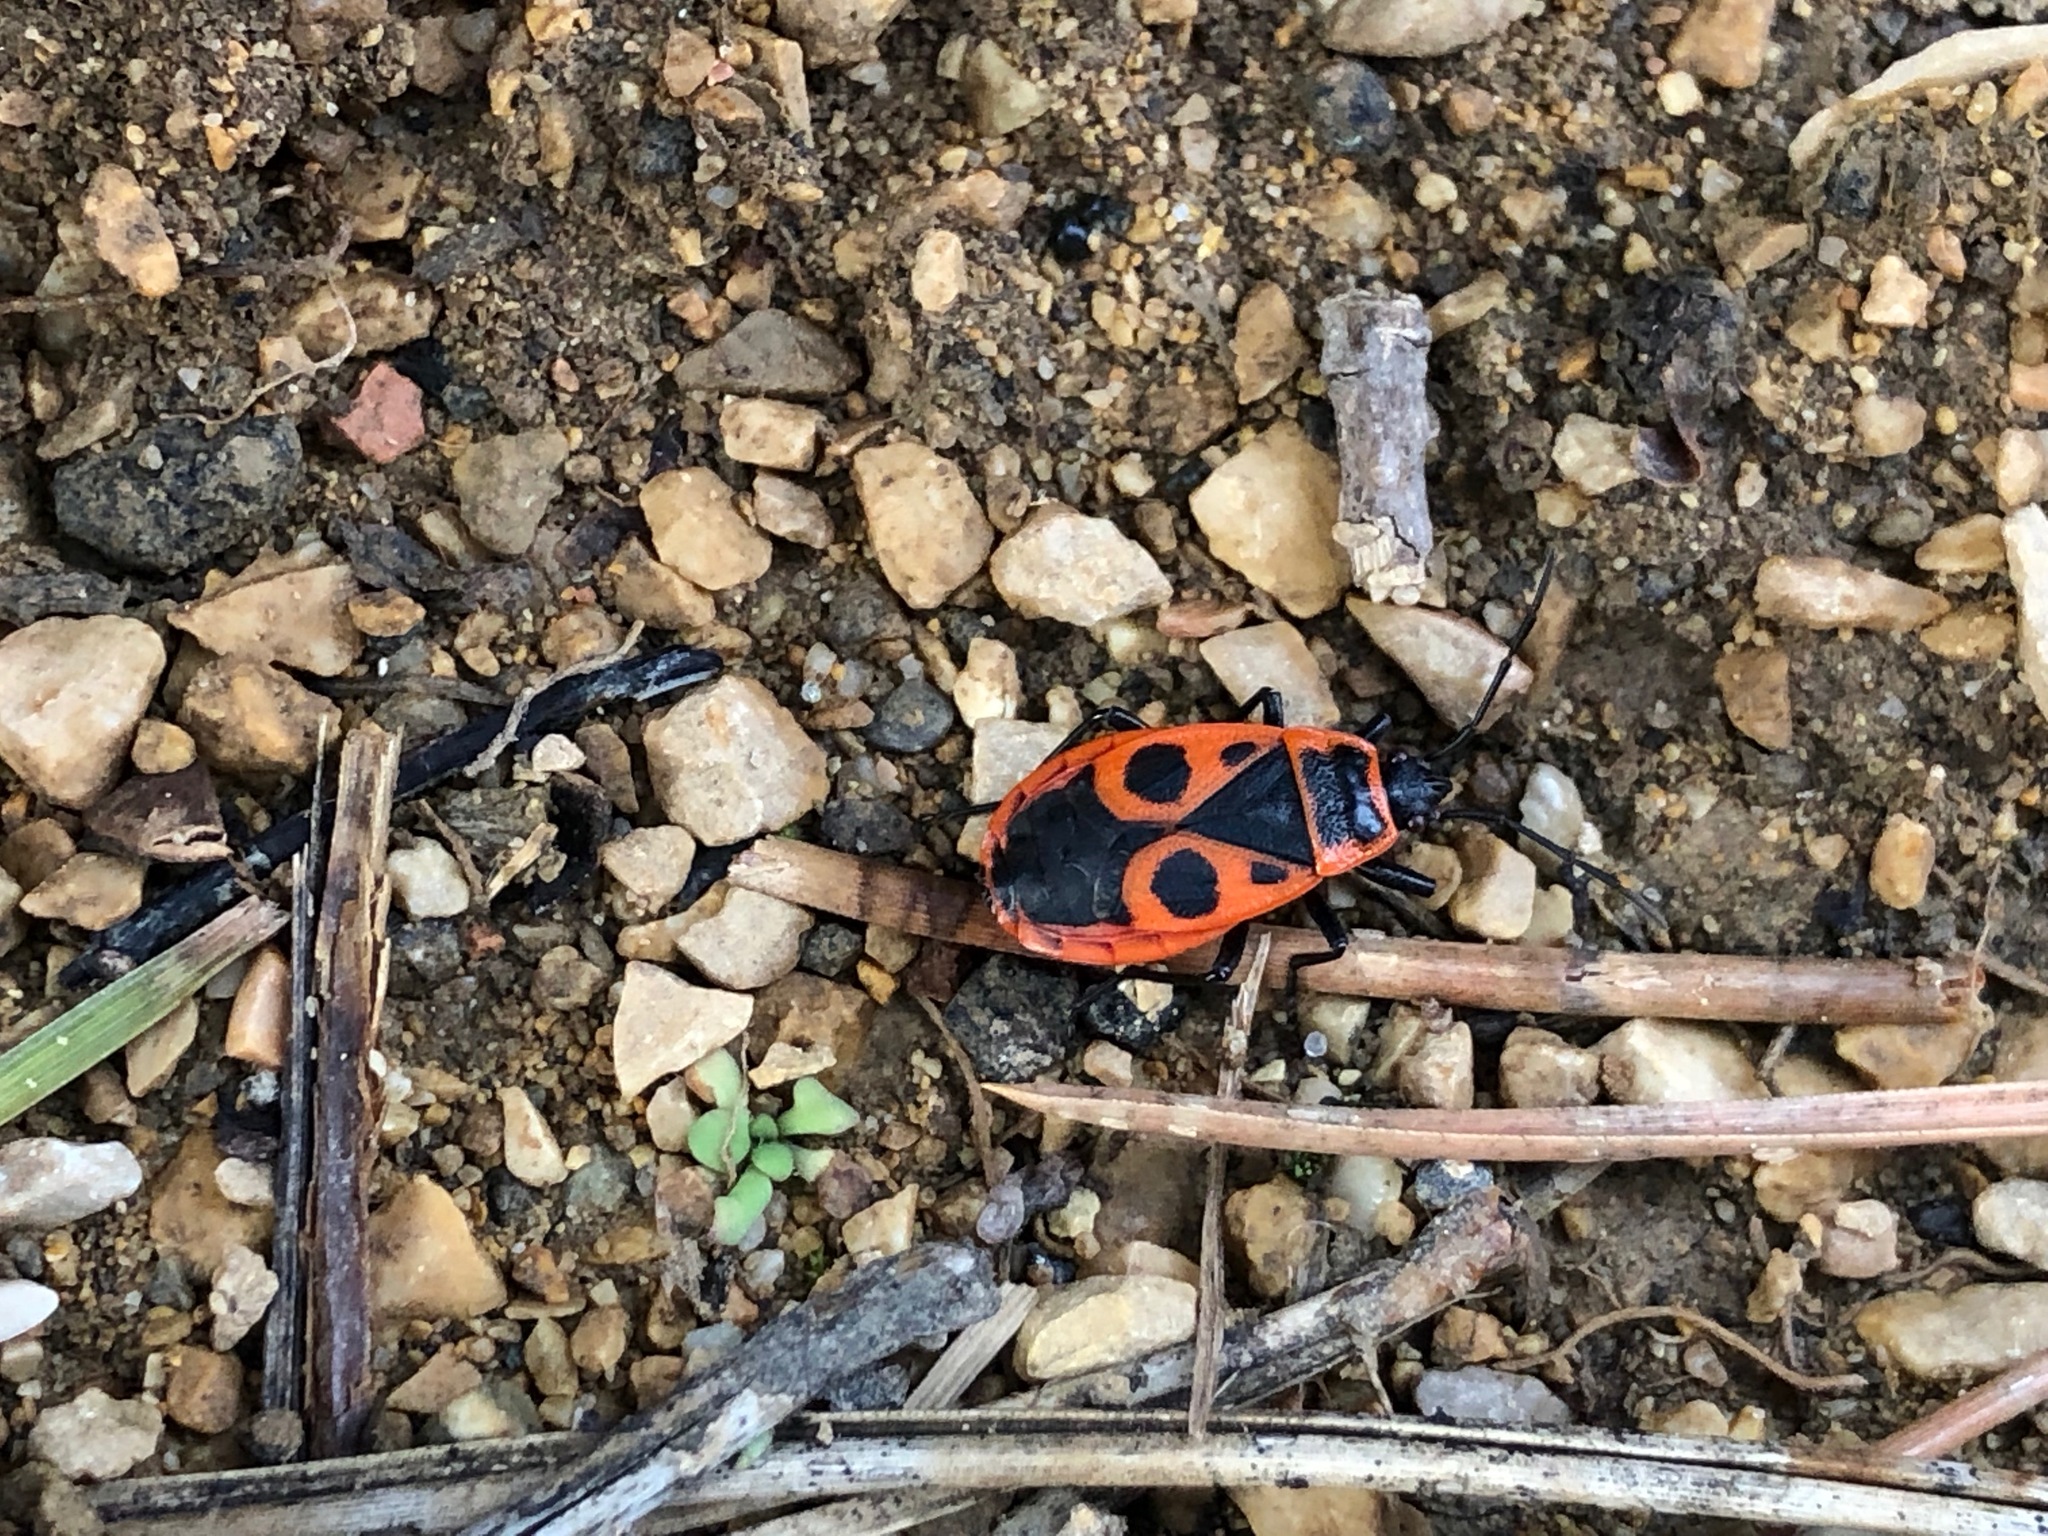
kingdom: Animalia
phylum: Arthropoda
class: Insecta
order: Hemiptera
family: Pyrrhocoridae
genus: Pyrrhocoris
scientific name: Pyrrhocoris apterus
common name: Firebug
